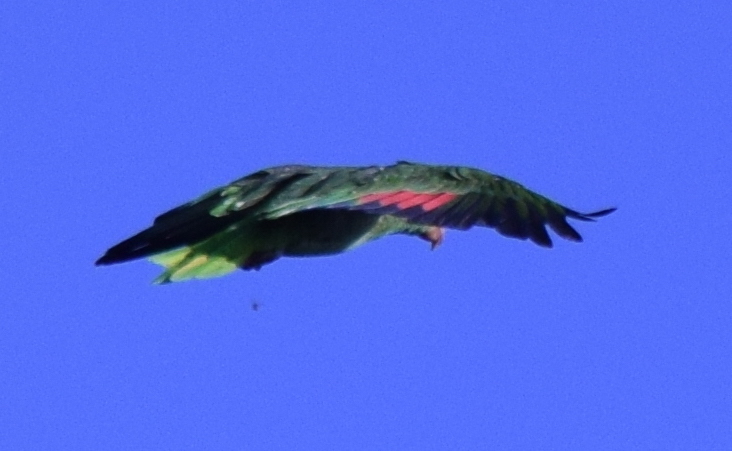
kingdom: Animalia
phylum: Chordata
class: Aves
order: Psittaciformes
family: Psittacidae
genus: Amazona
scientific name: Amazona viridigenalis
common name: Red-crowned amazon
